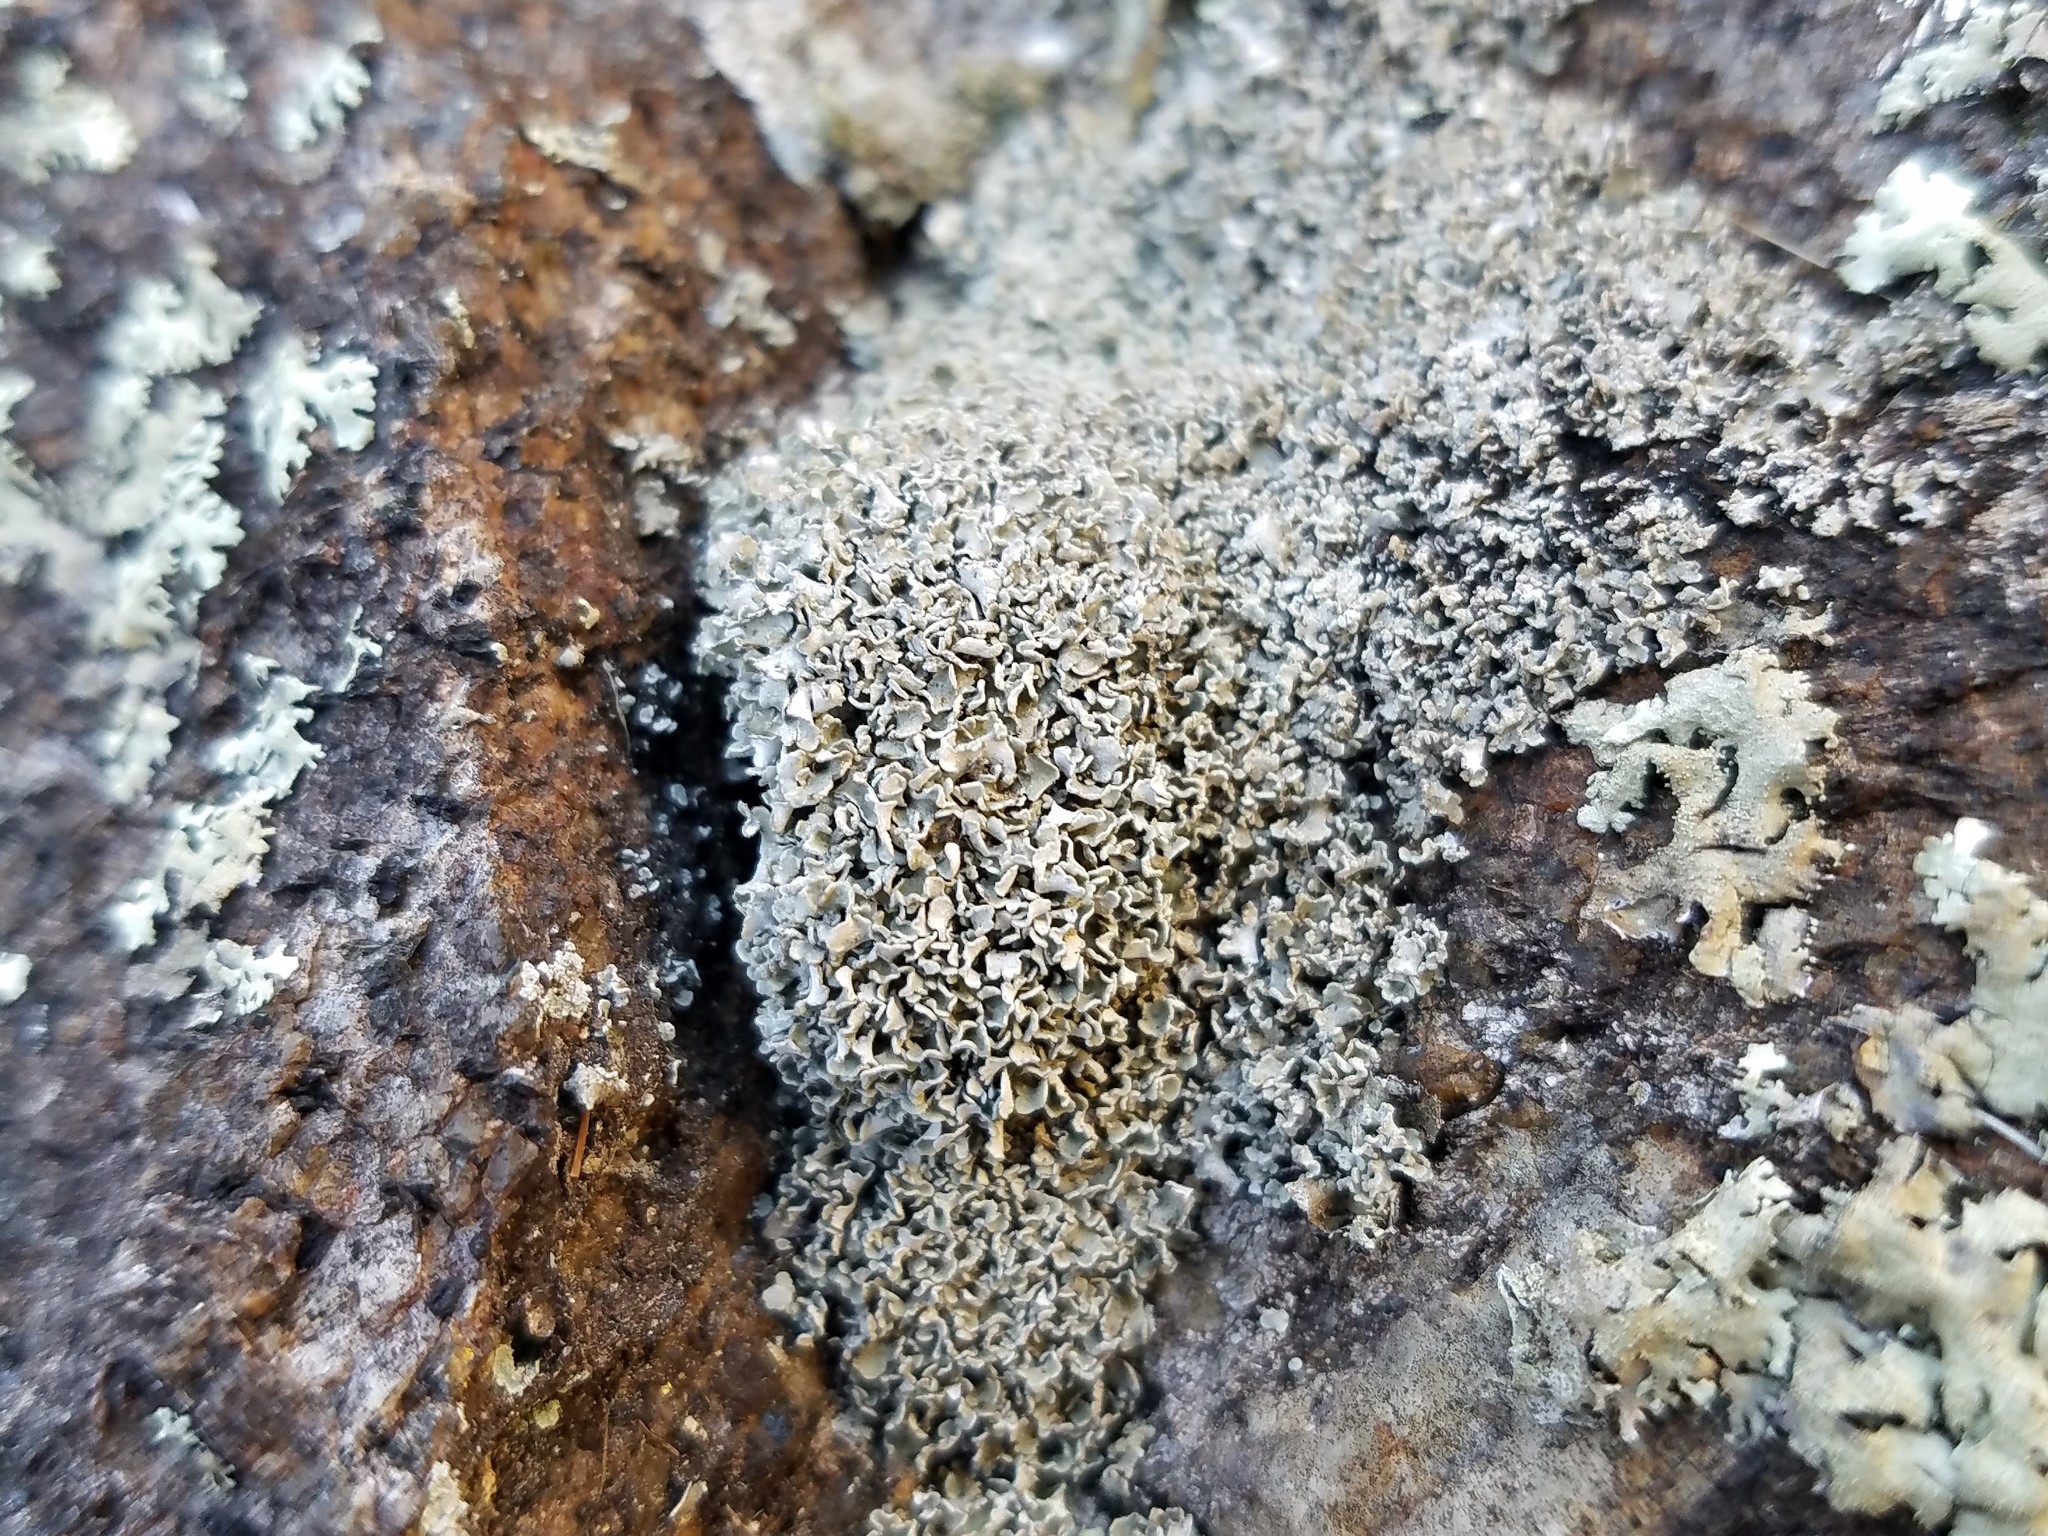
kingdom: Fungi
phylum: Ascomycota
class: Lecanoromycetes
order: Lecanorales
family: Cladoniaceae
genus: Cladonia
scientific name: Cladonia strepsilis
